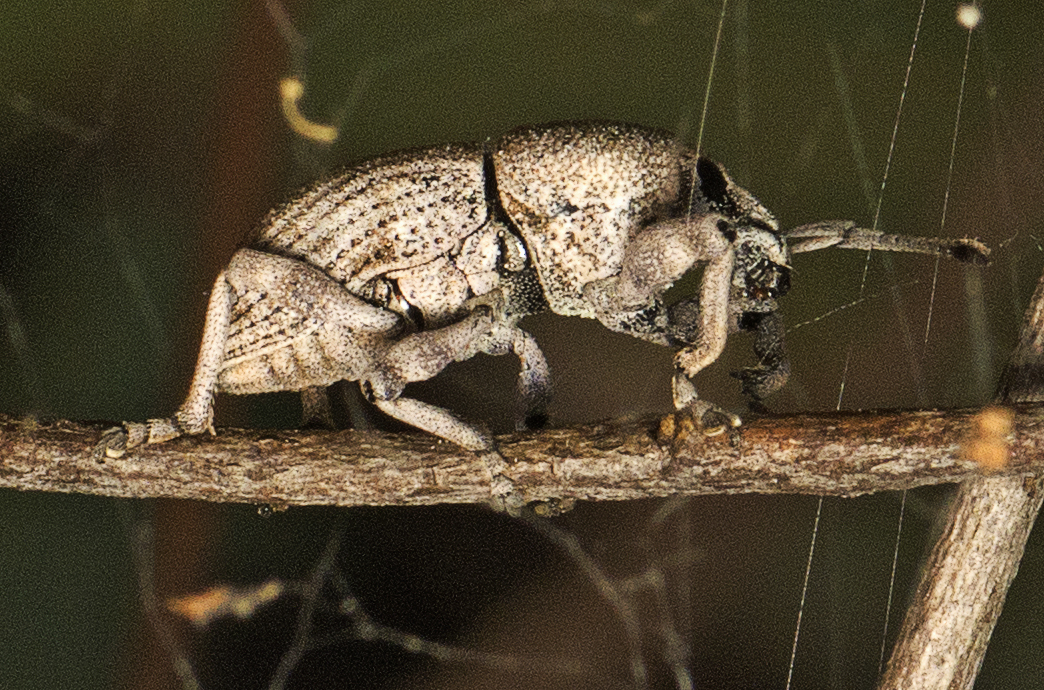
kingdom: Animalia
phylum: Arthropoda
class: Insecta
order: Coleoptera
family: Curculionidae
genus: Polyphrades
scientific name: Polyphrades paganus
